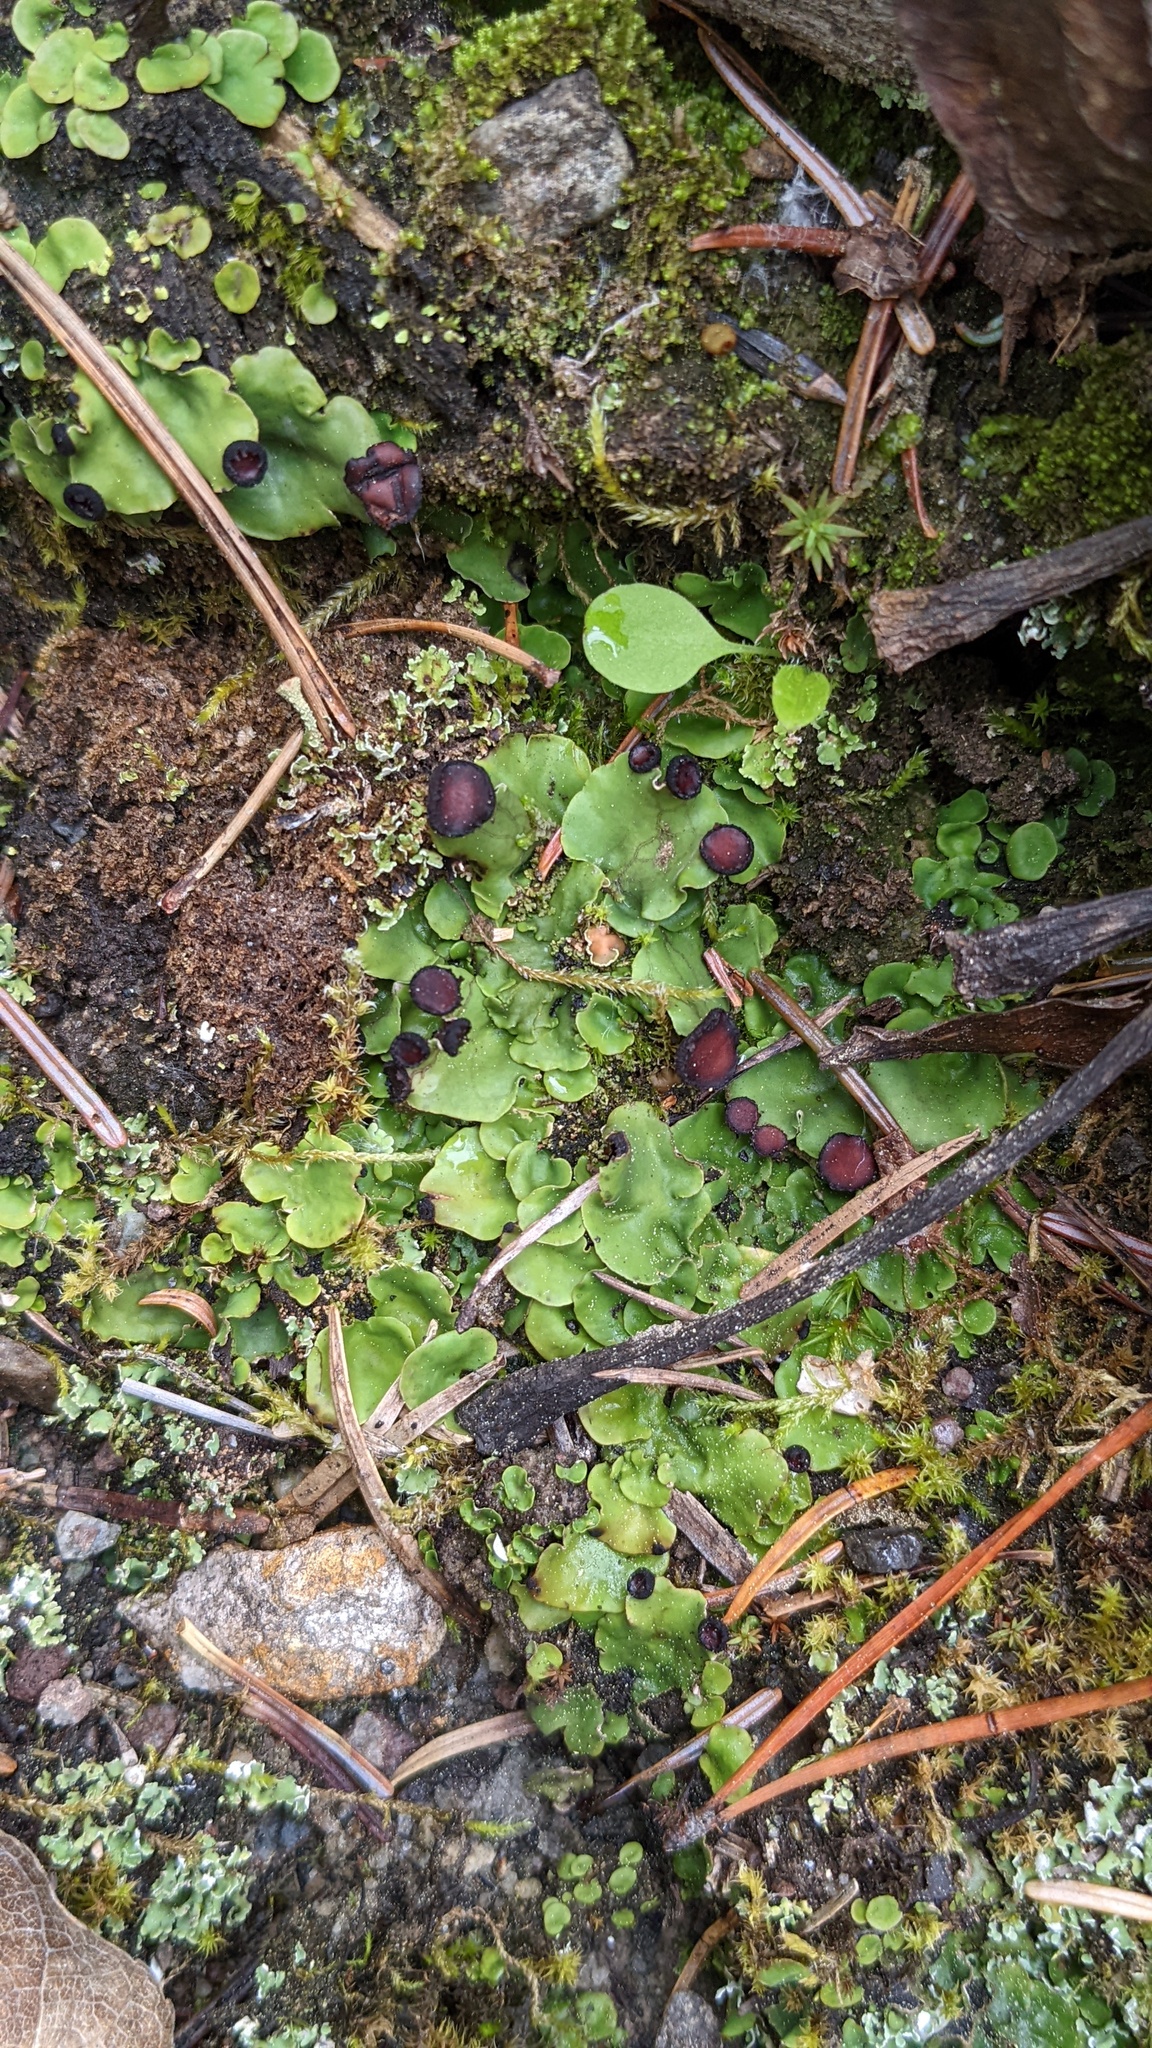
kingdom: Fungi
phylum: Ascomycota
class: Lecanoromycetes
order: Peltigerales
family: Peltigeraceae
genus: Peltigera
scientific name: Peltigera venosa
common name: Pixie gowns lichen
